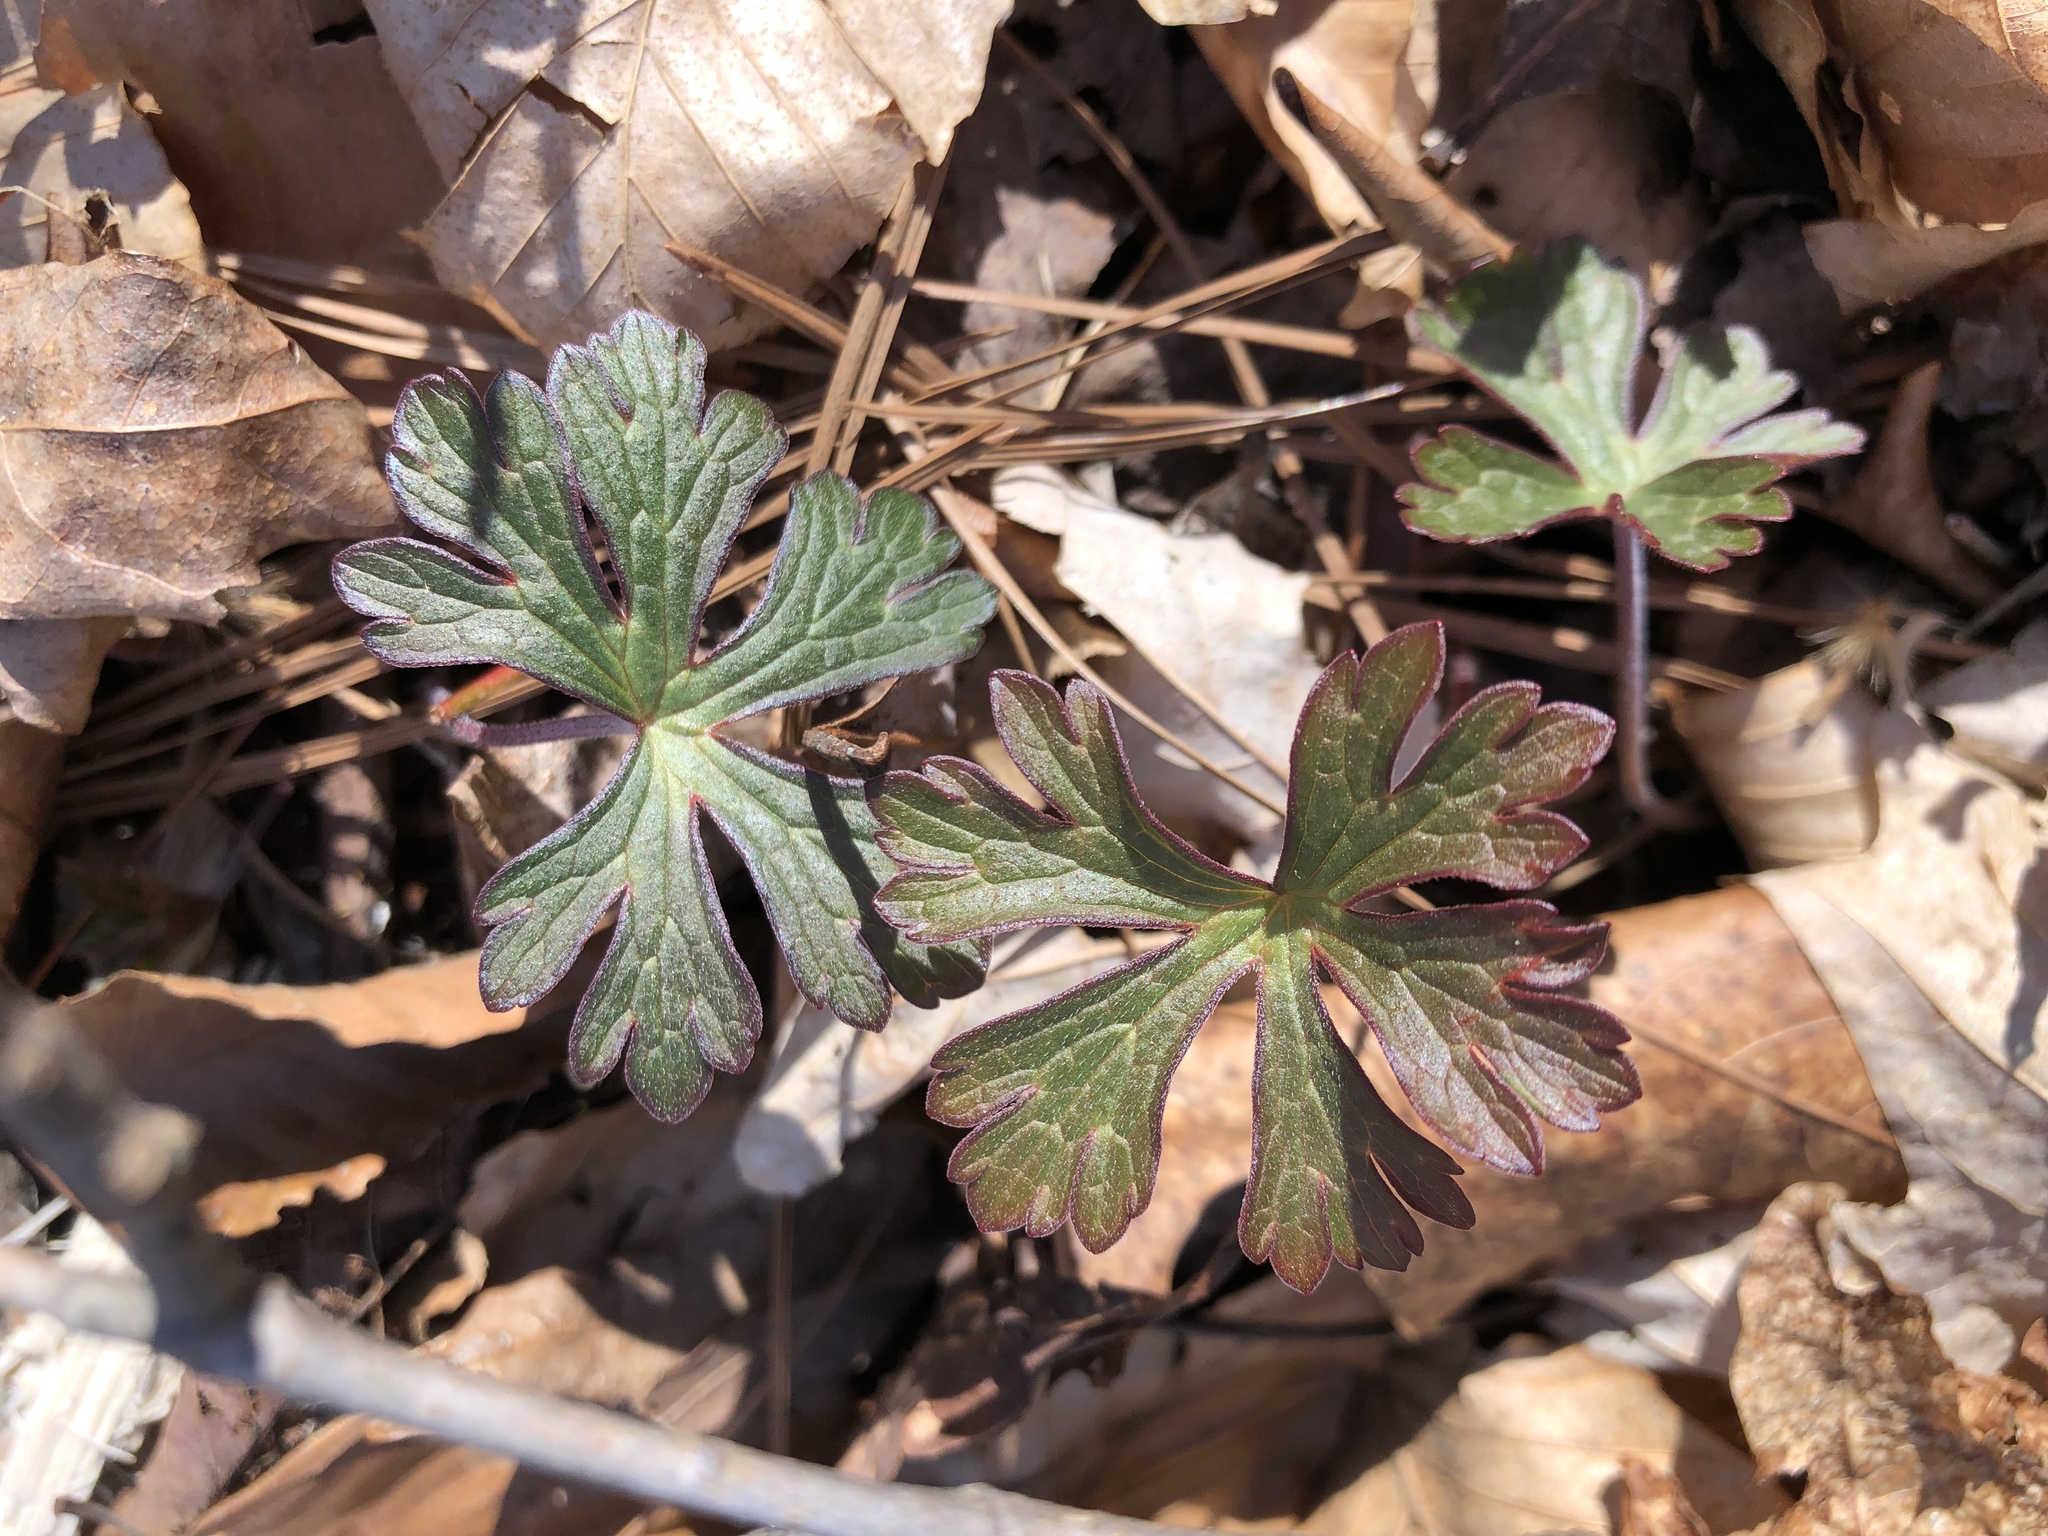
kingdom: Plantae
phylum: Tracheophyta
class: Magnoliopsida
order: Ranunculales
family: Papaveraceae
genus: Sanguinaria
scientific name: Sanguinaria canadensis
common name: Bloodroot
